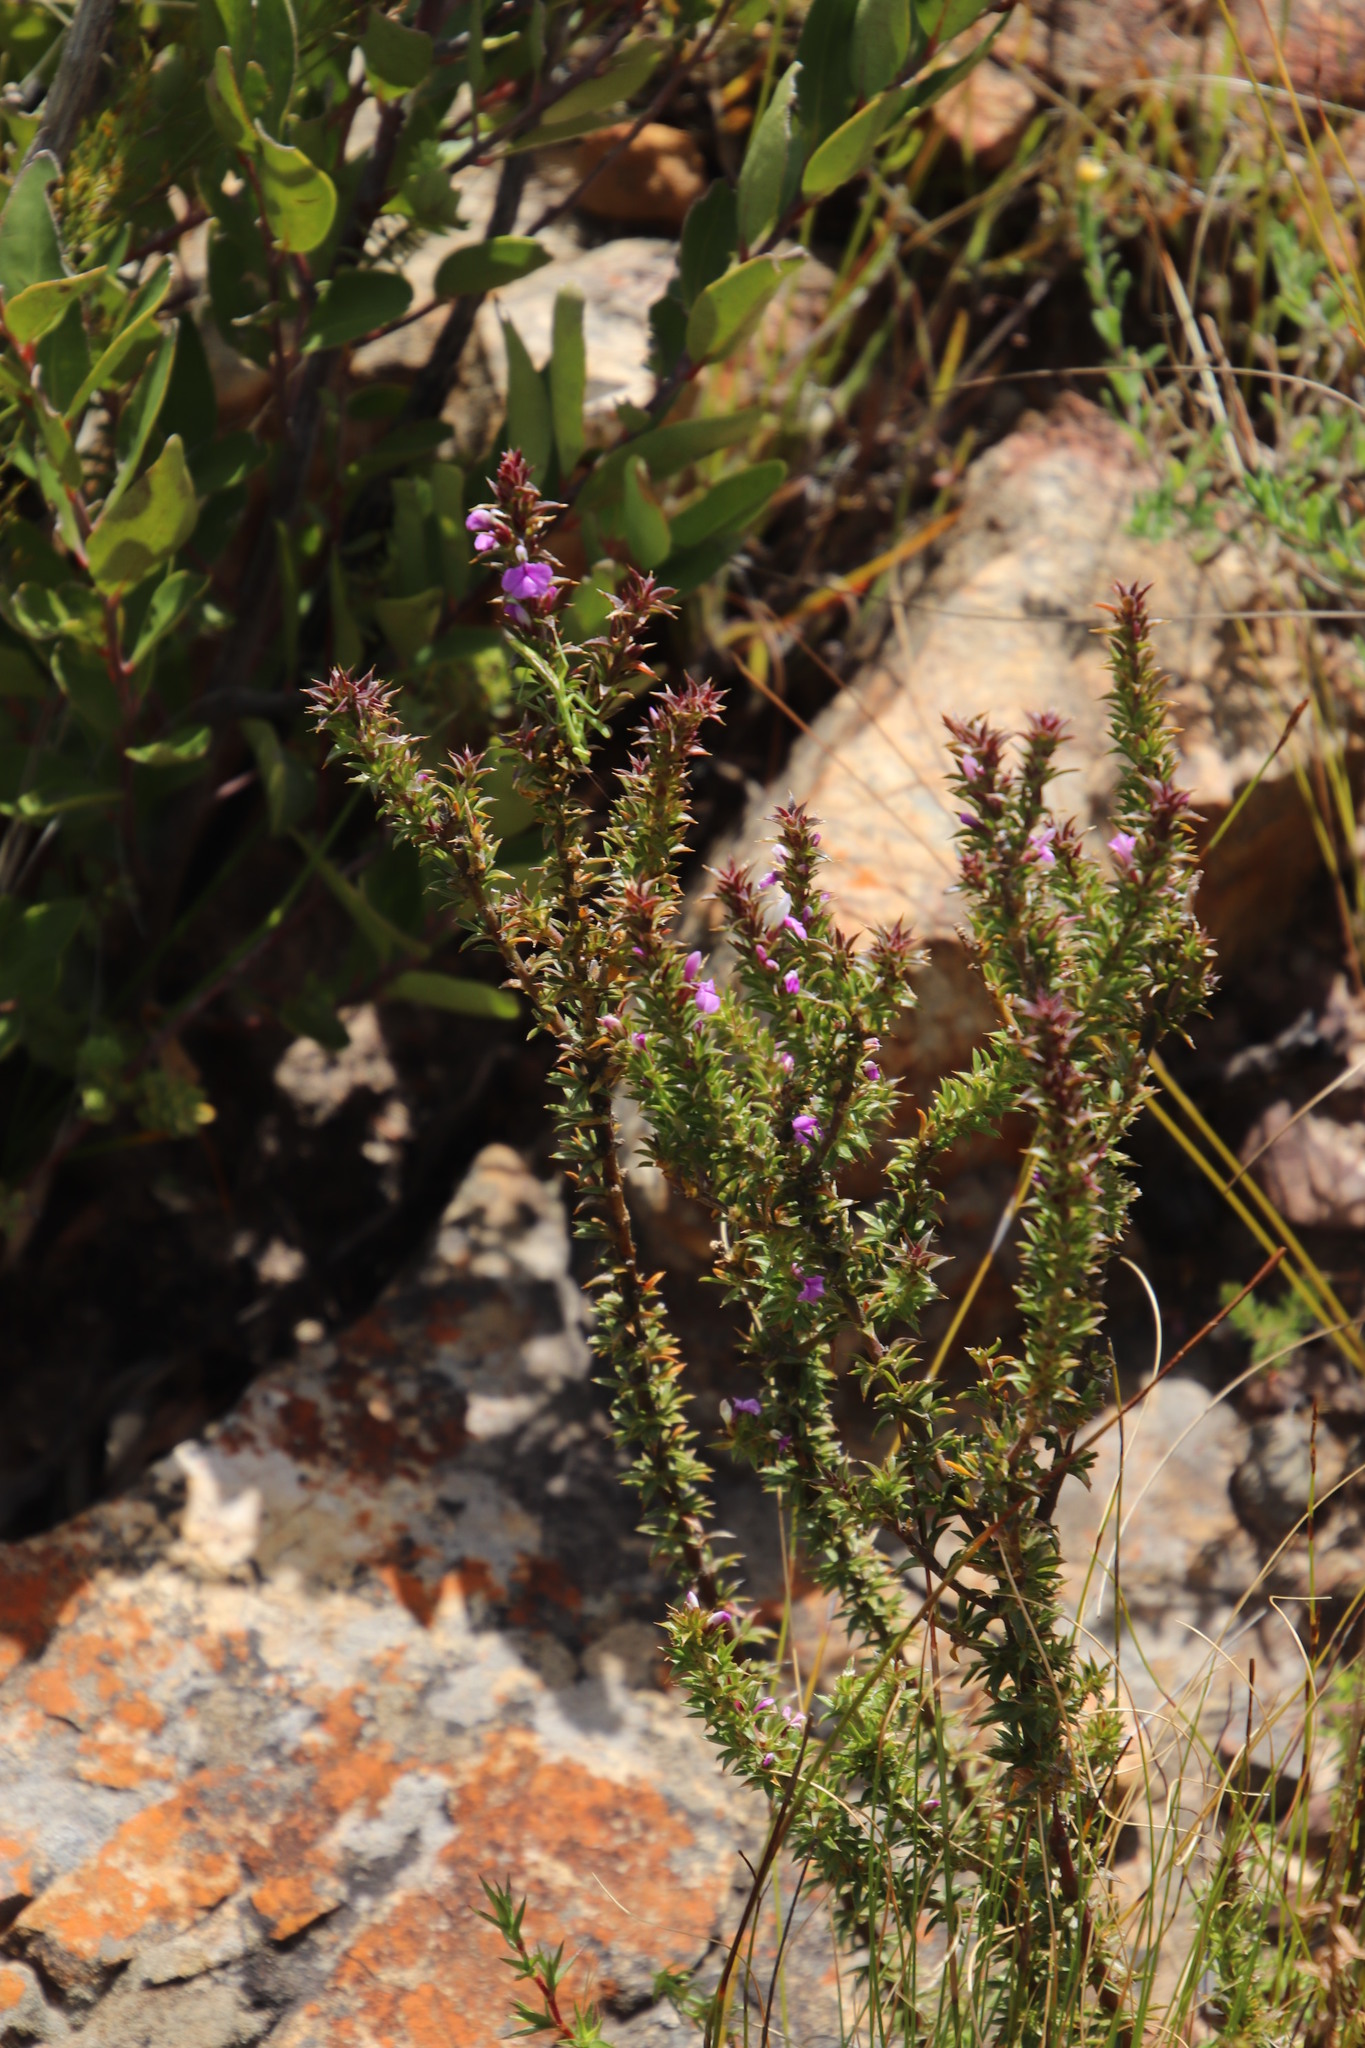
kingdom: Plantae
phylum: Tracheophyta
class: Magnoliopsida
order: Fabales
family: Polygalaceae
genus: Muraltia
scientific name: Muraltia heisteria
